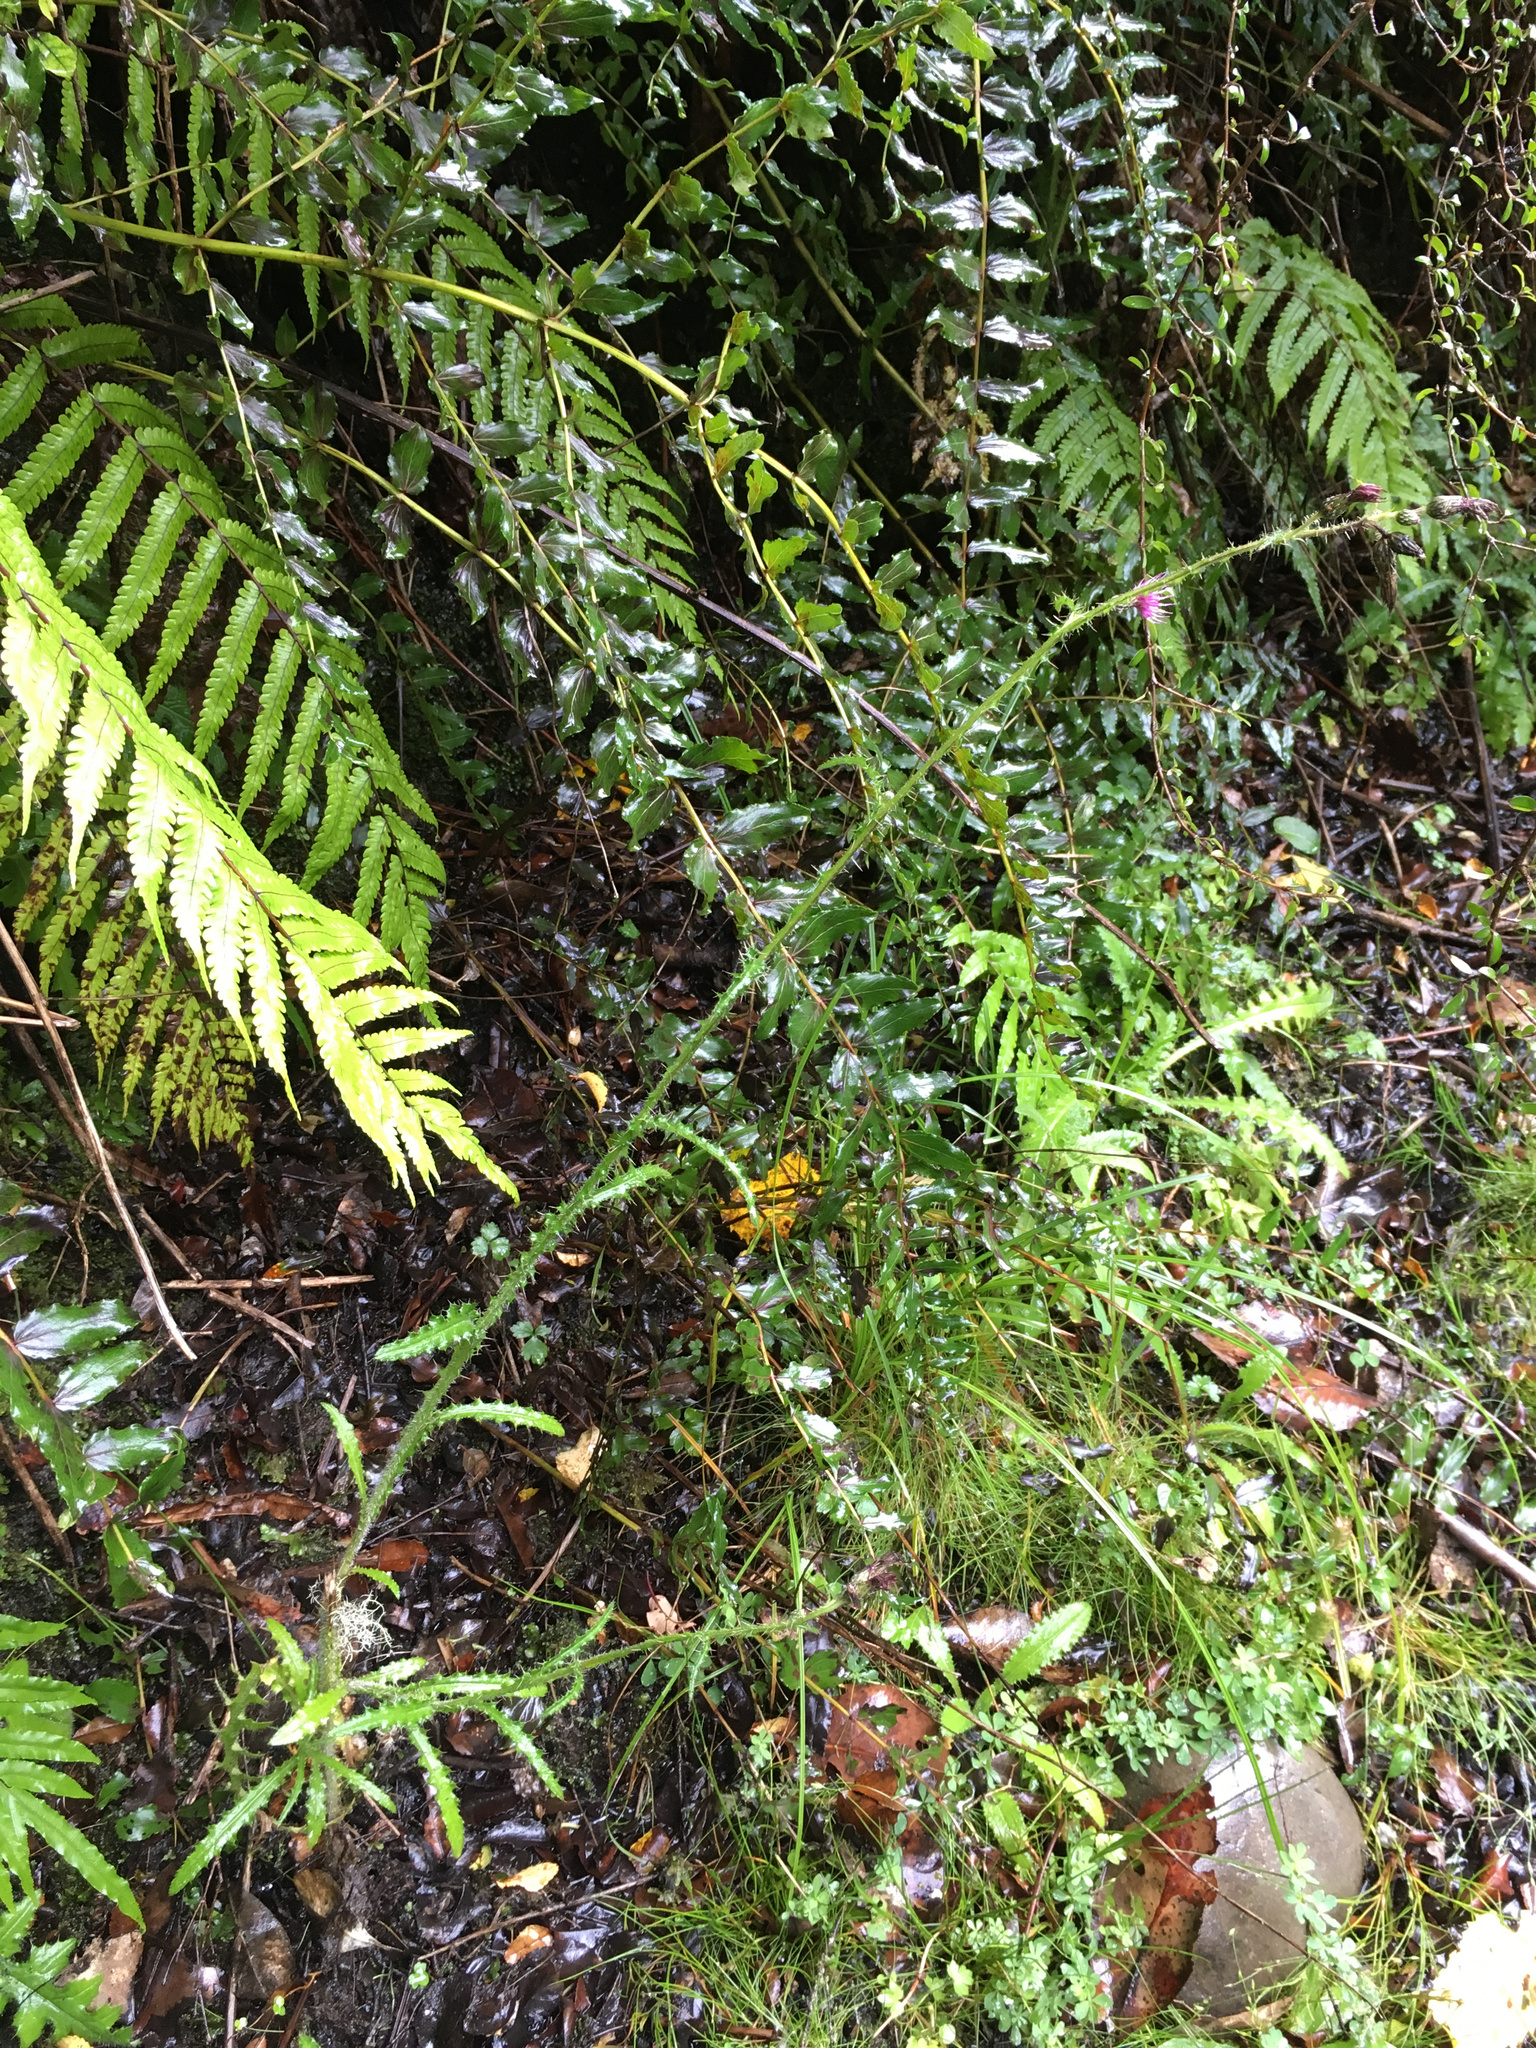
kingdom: Plantae
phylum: Tracheophyta
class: Magnoliopsida
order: Asterales
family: Asteraceae
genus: Cirsium
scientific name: Cirsium palustre
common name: Marsh thistle
